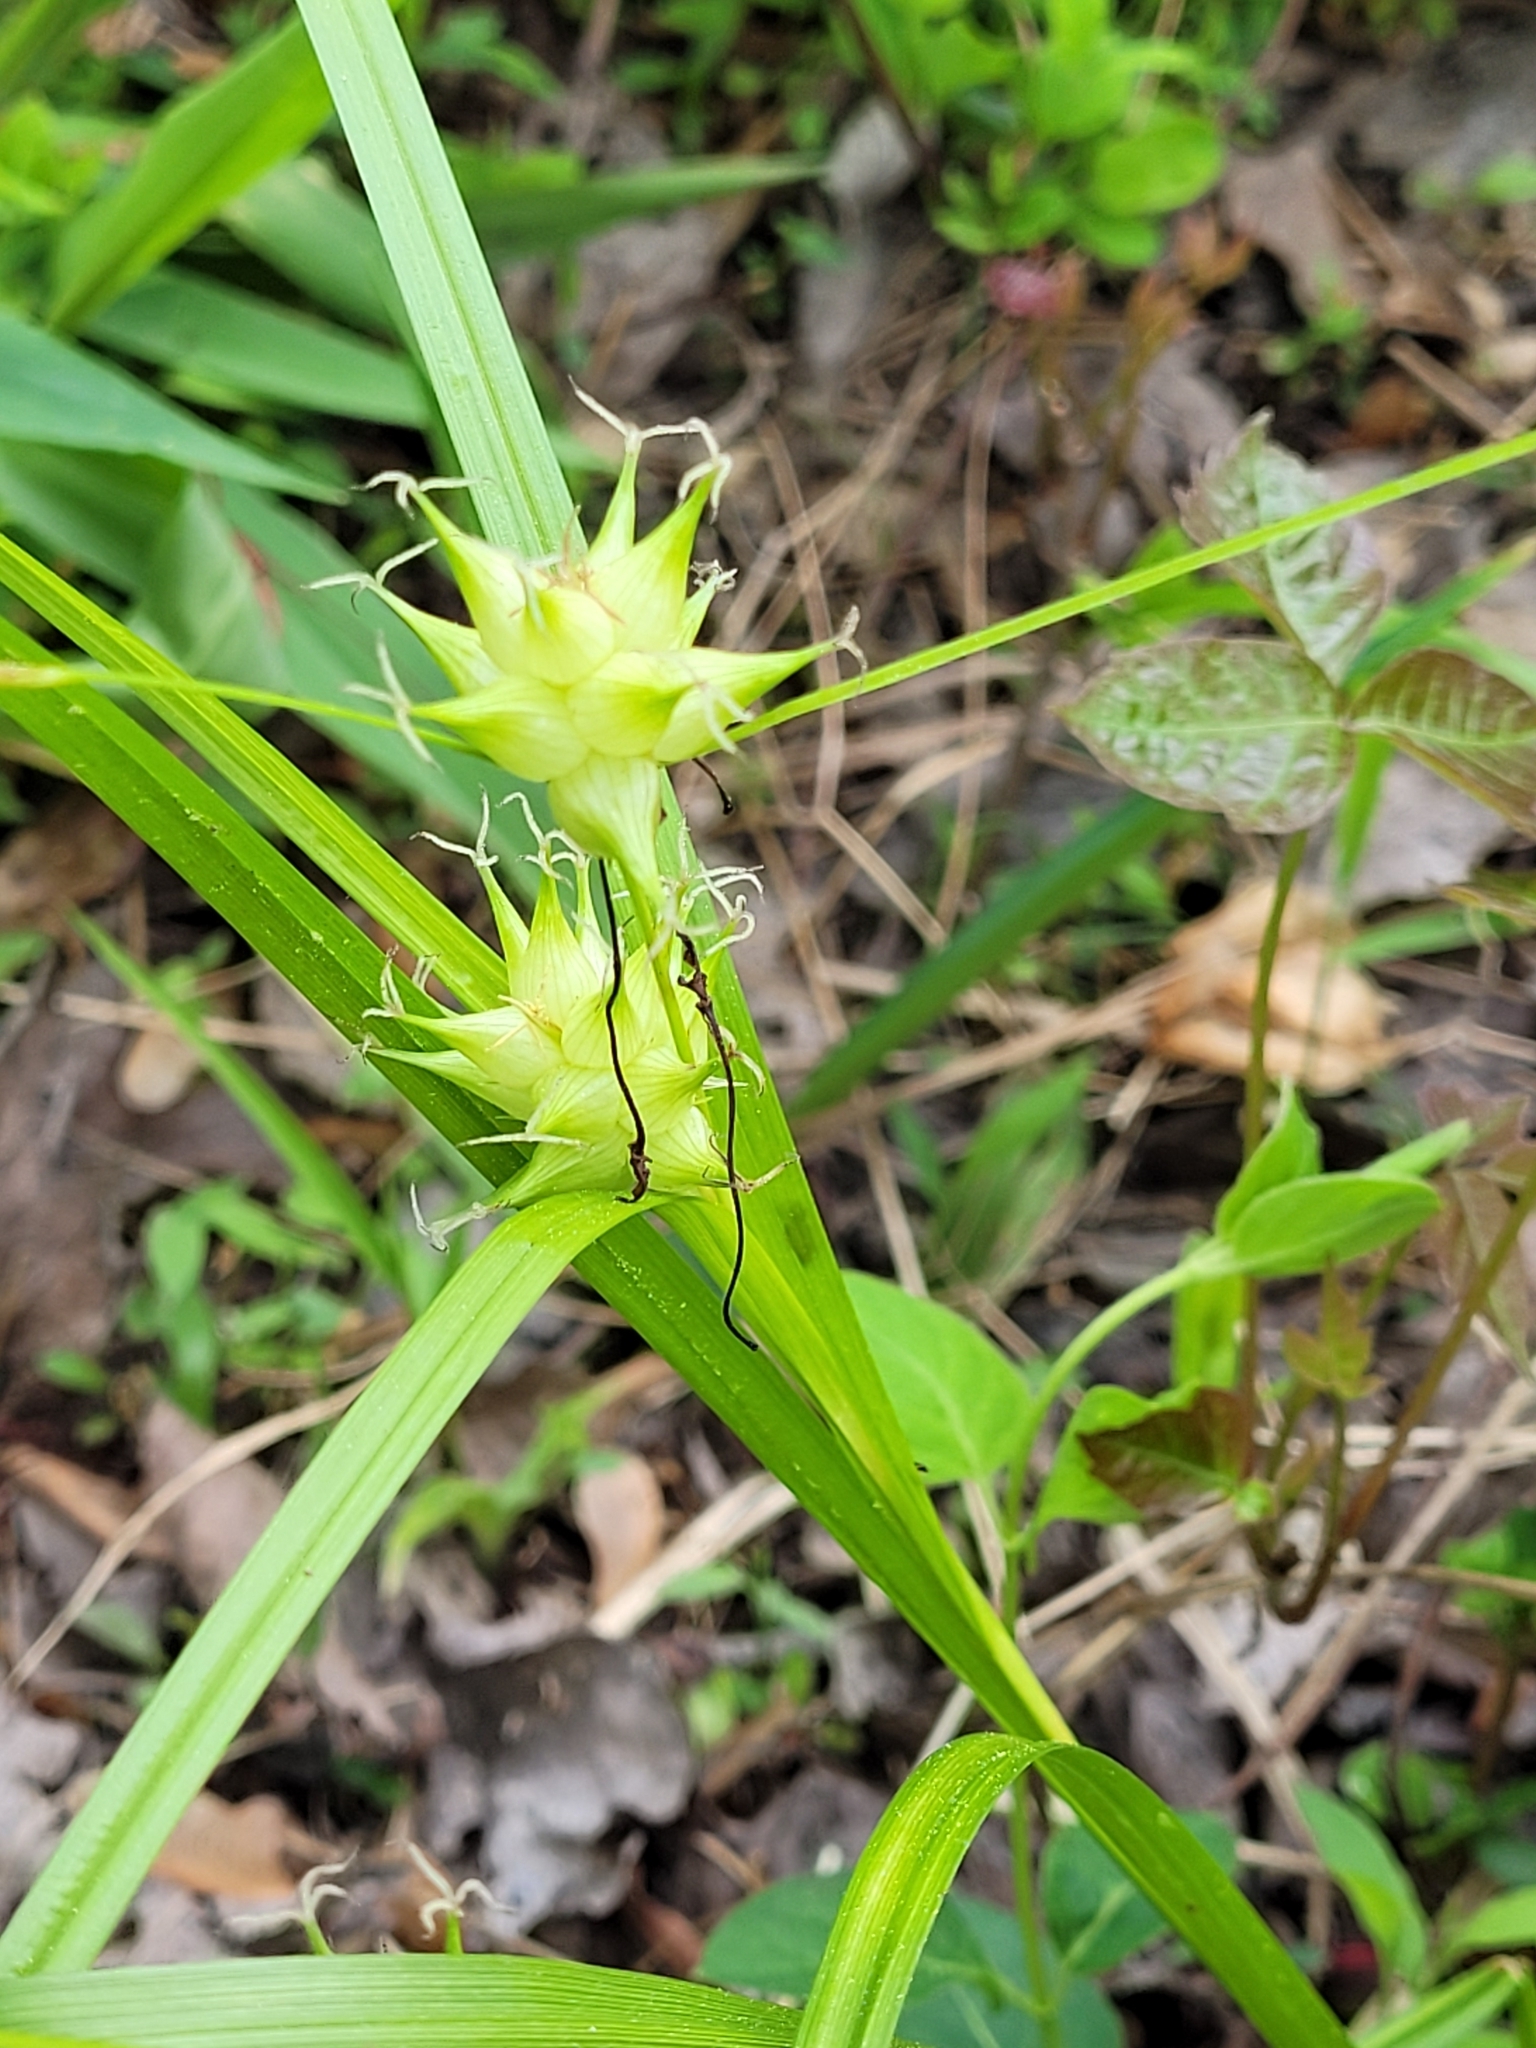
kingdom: Plantae
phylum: Tracheophyta
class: Liliopsida
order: Poales
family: Cyperaceae
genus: Carex
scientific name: Carex intumescens
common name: Greater bladder sedge
